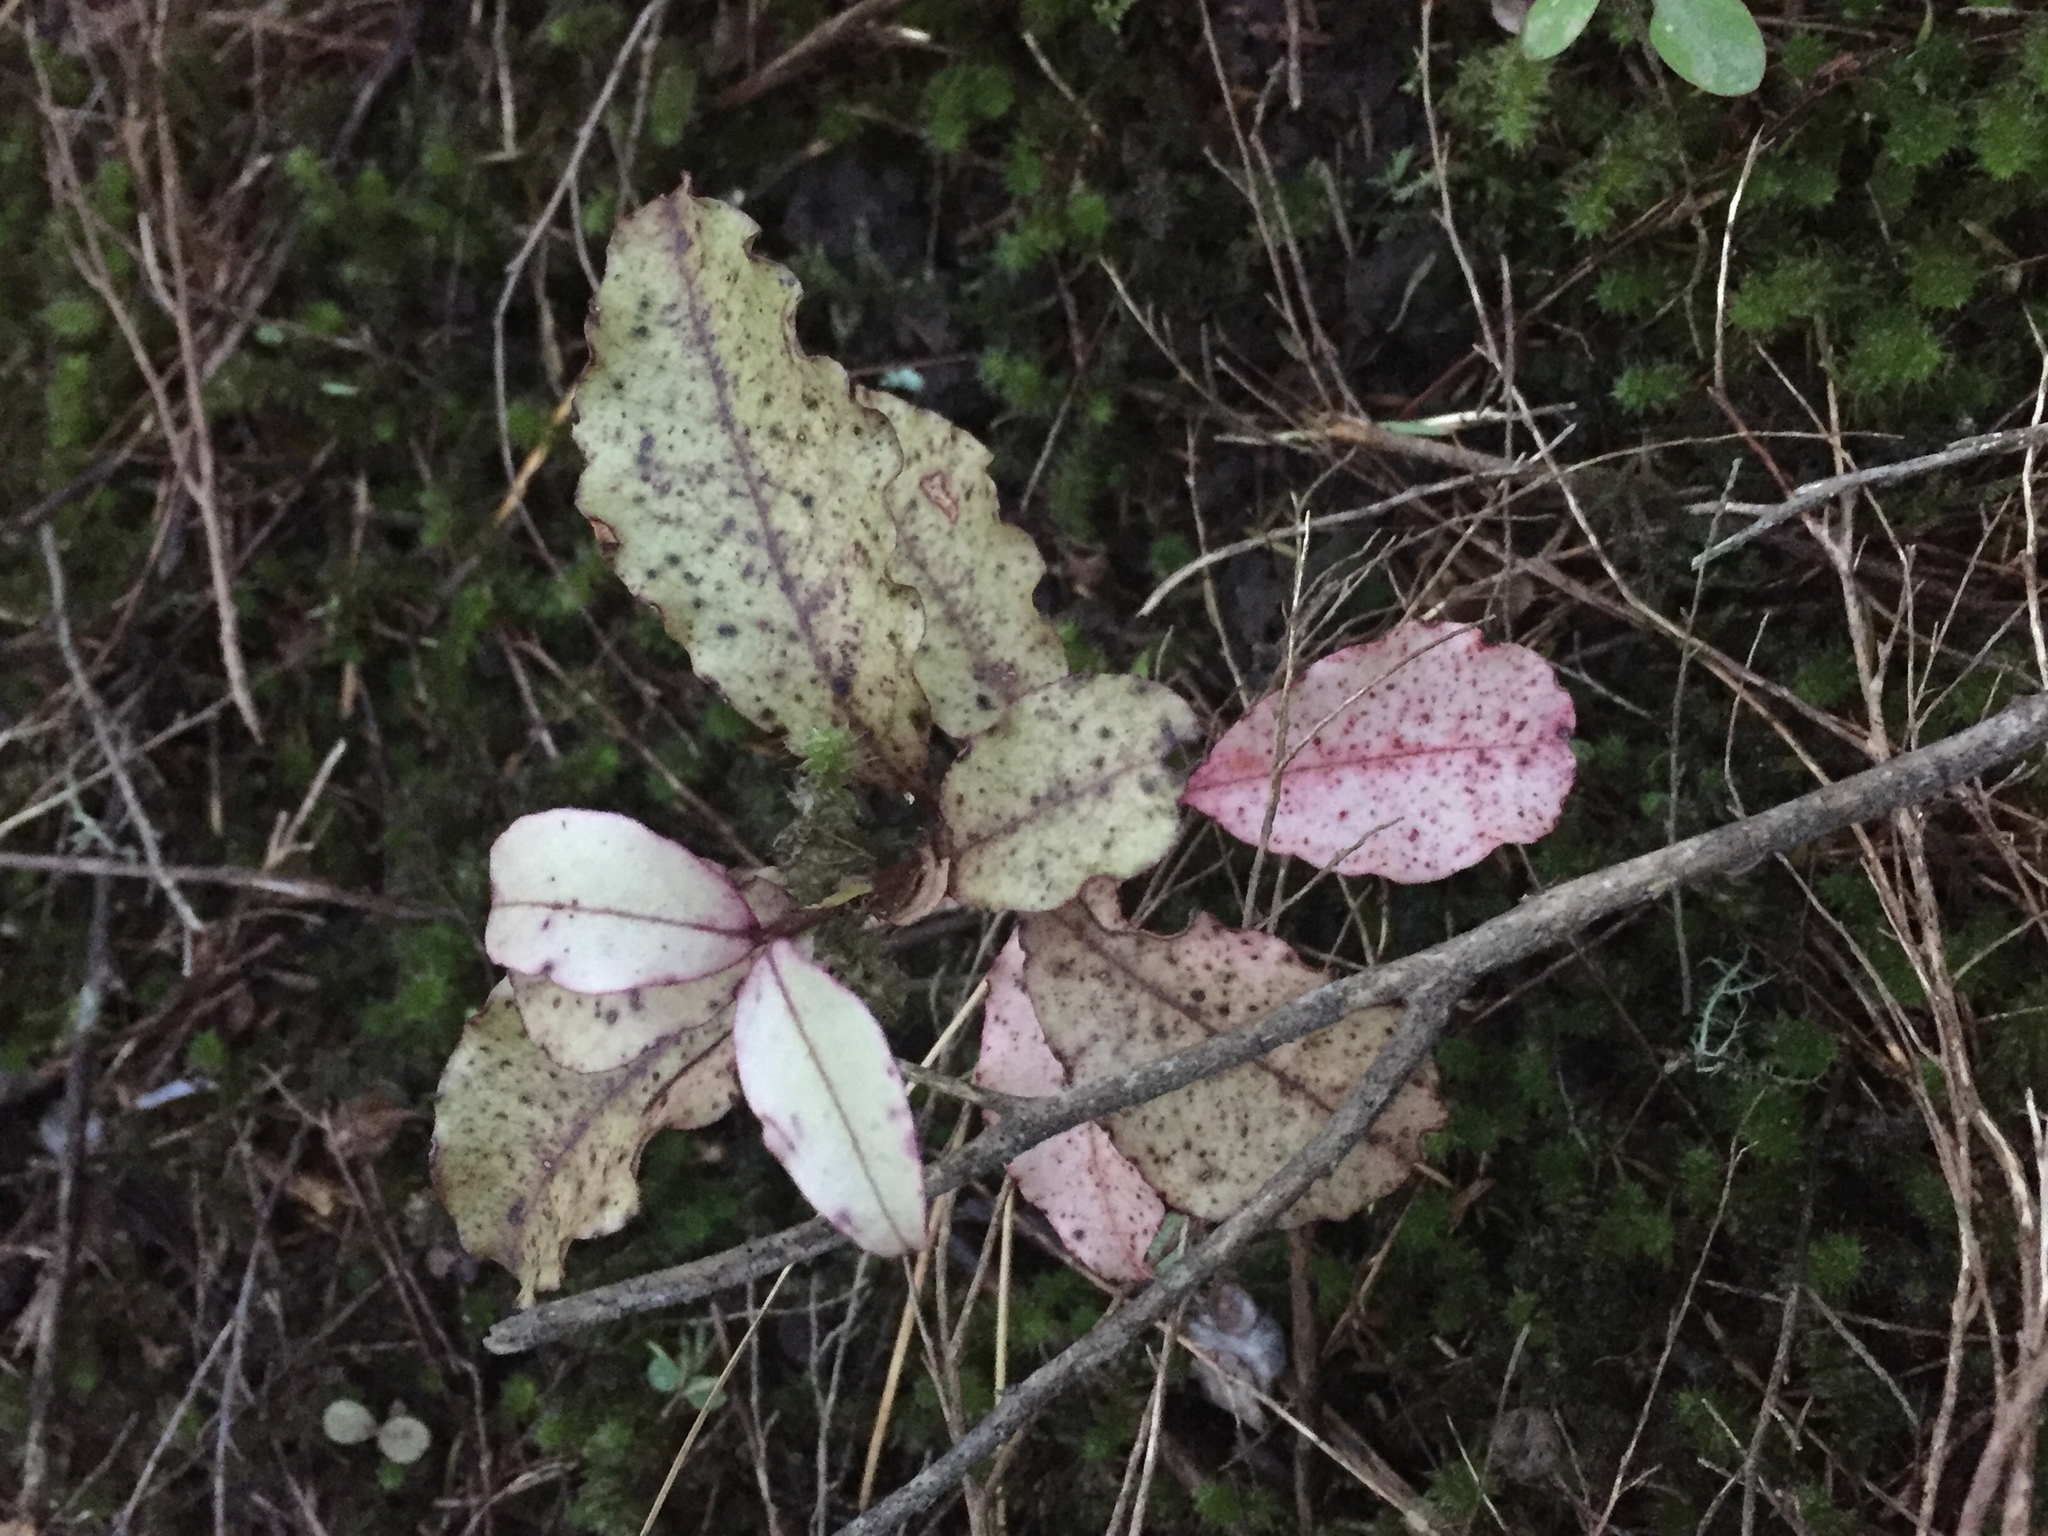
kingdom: Plantae
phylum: Tracheophyta
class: Magnoliopsida
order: Canellales
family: Winteraceae
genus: Pseudowintera
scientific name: Pseudowintera colorata
